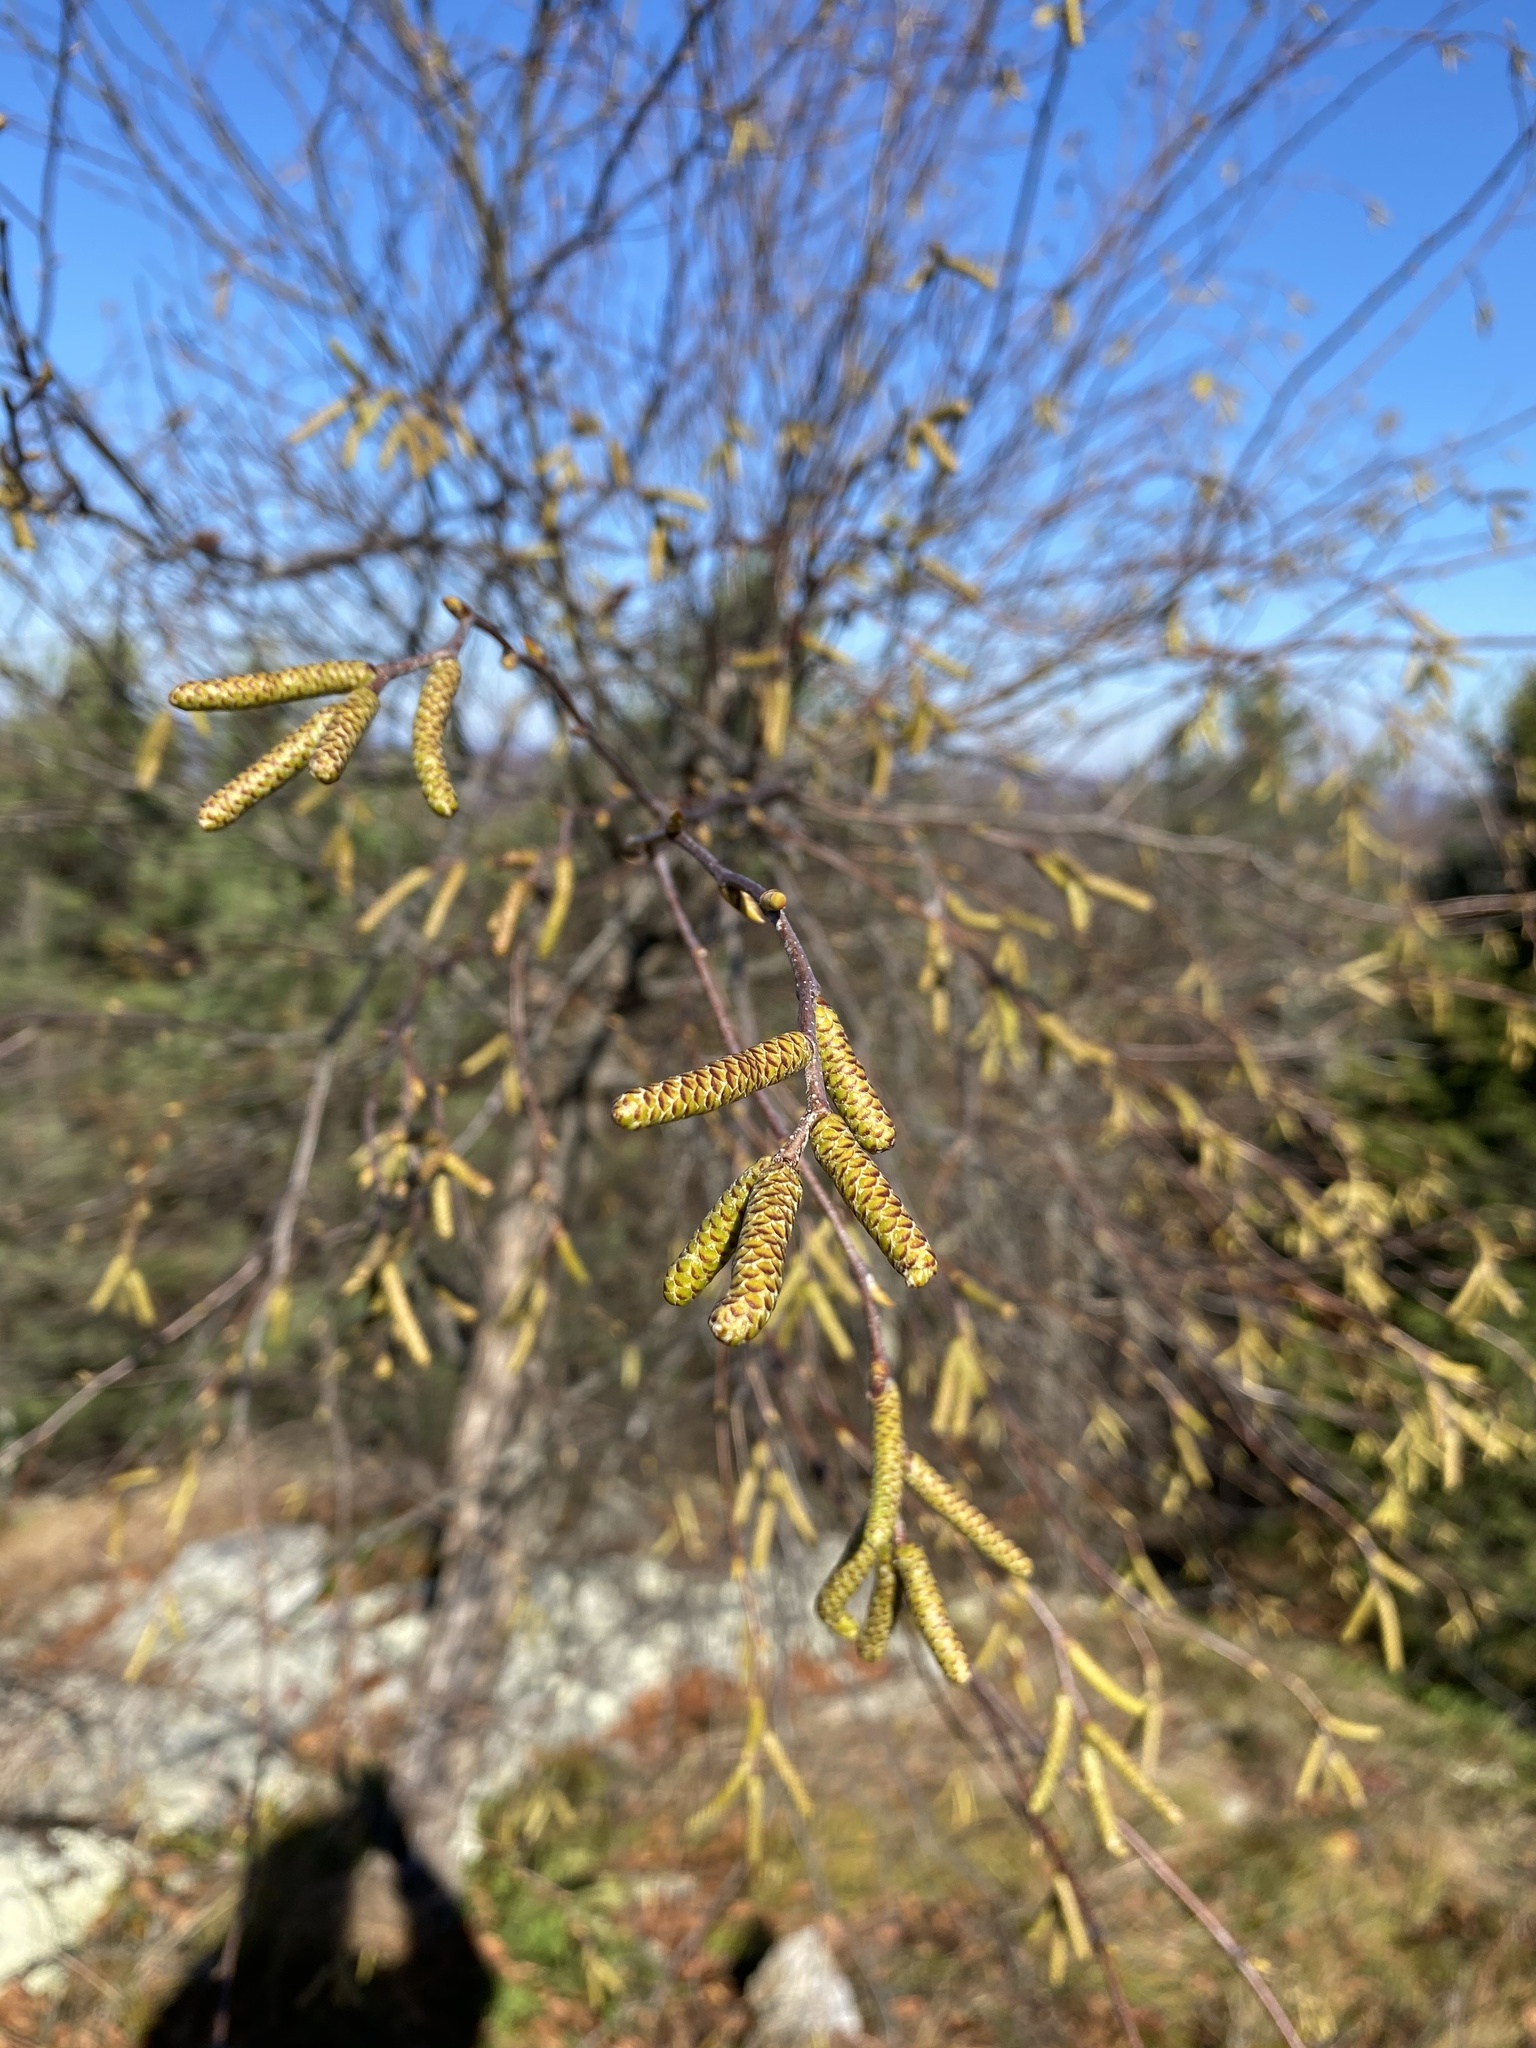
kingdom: Plantae
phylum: Tracheophyta
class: Magnoliopsida
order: Fagales
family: Betulaceae
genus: Betula
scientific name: Betula lenta
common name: Black birch
